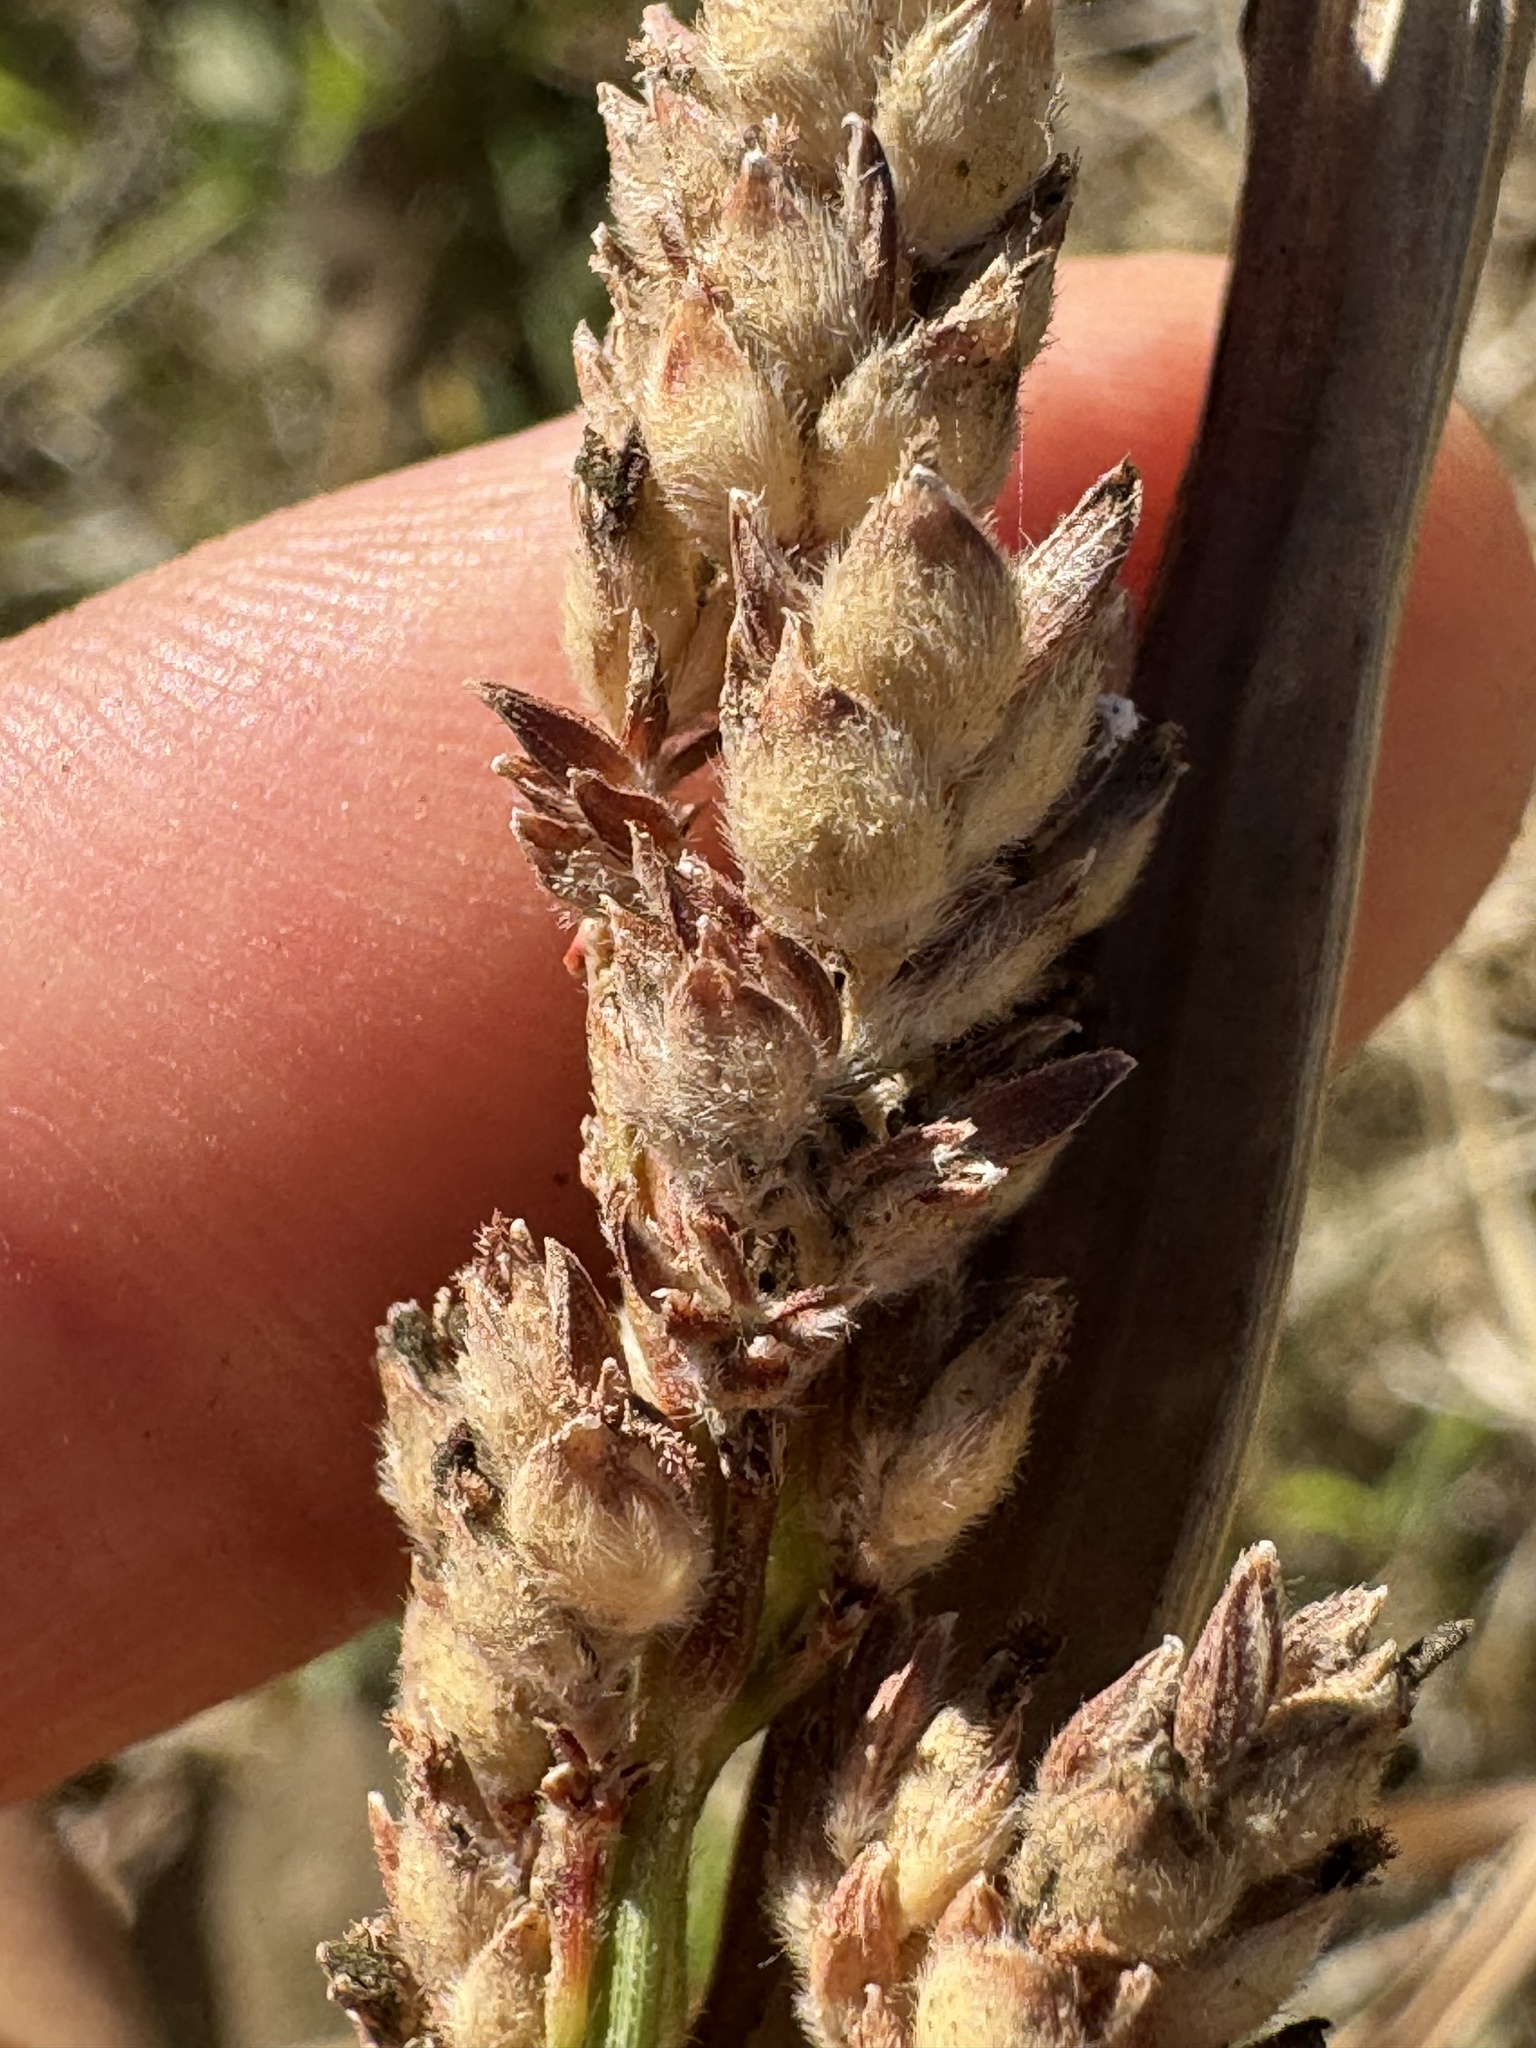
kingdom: Plantae
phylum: Tracheophyta
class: Liliopsida
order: Poales
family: Poaceae
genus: Sorghum
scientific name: Sorghum bicolor
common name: Sorghum
